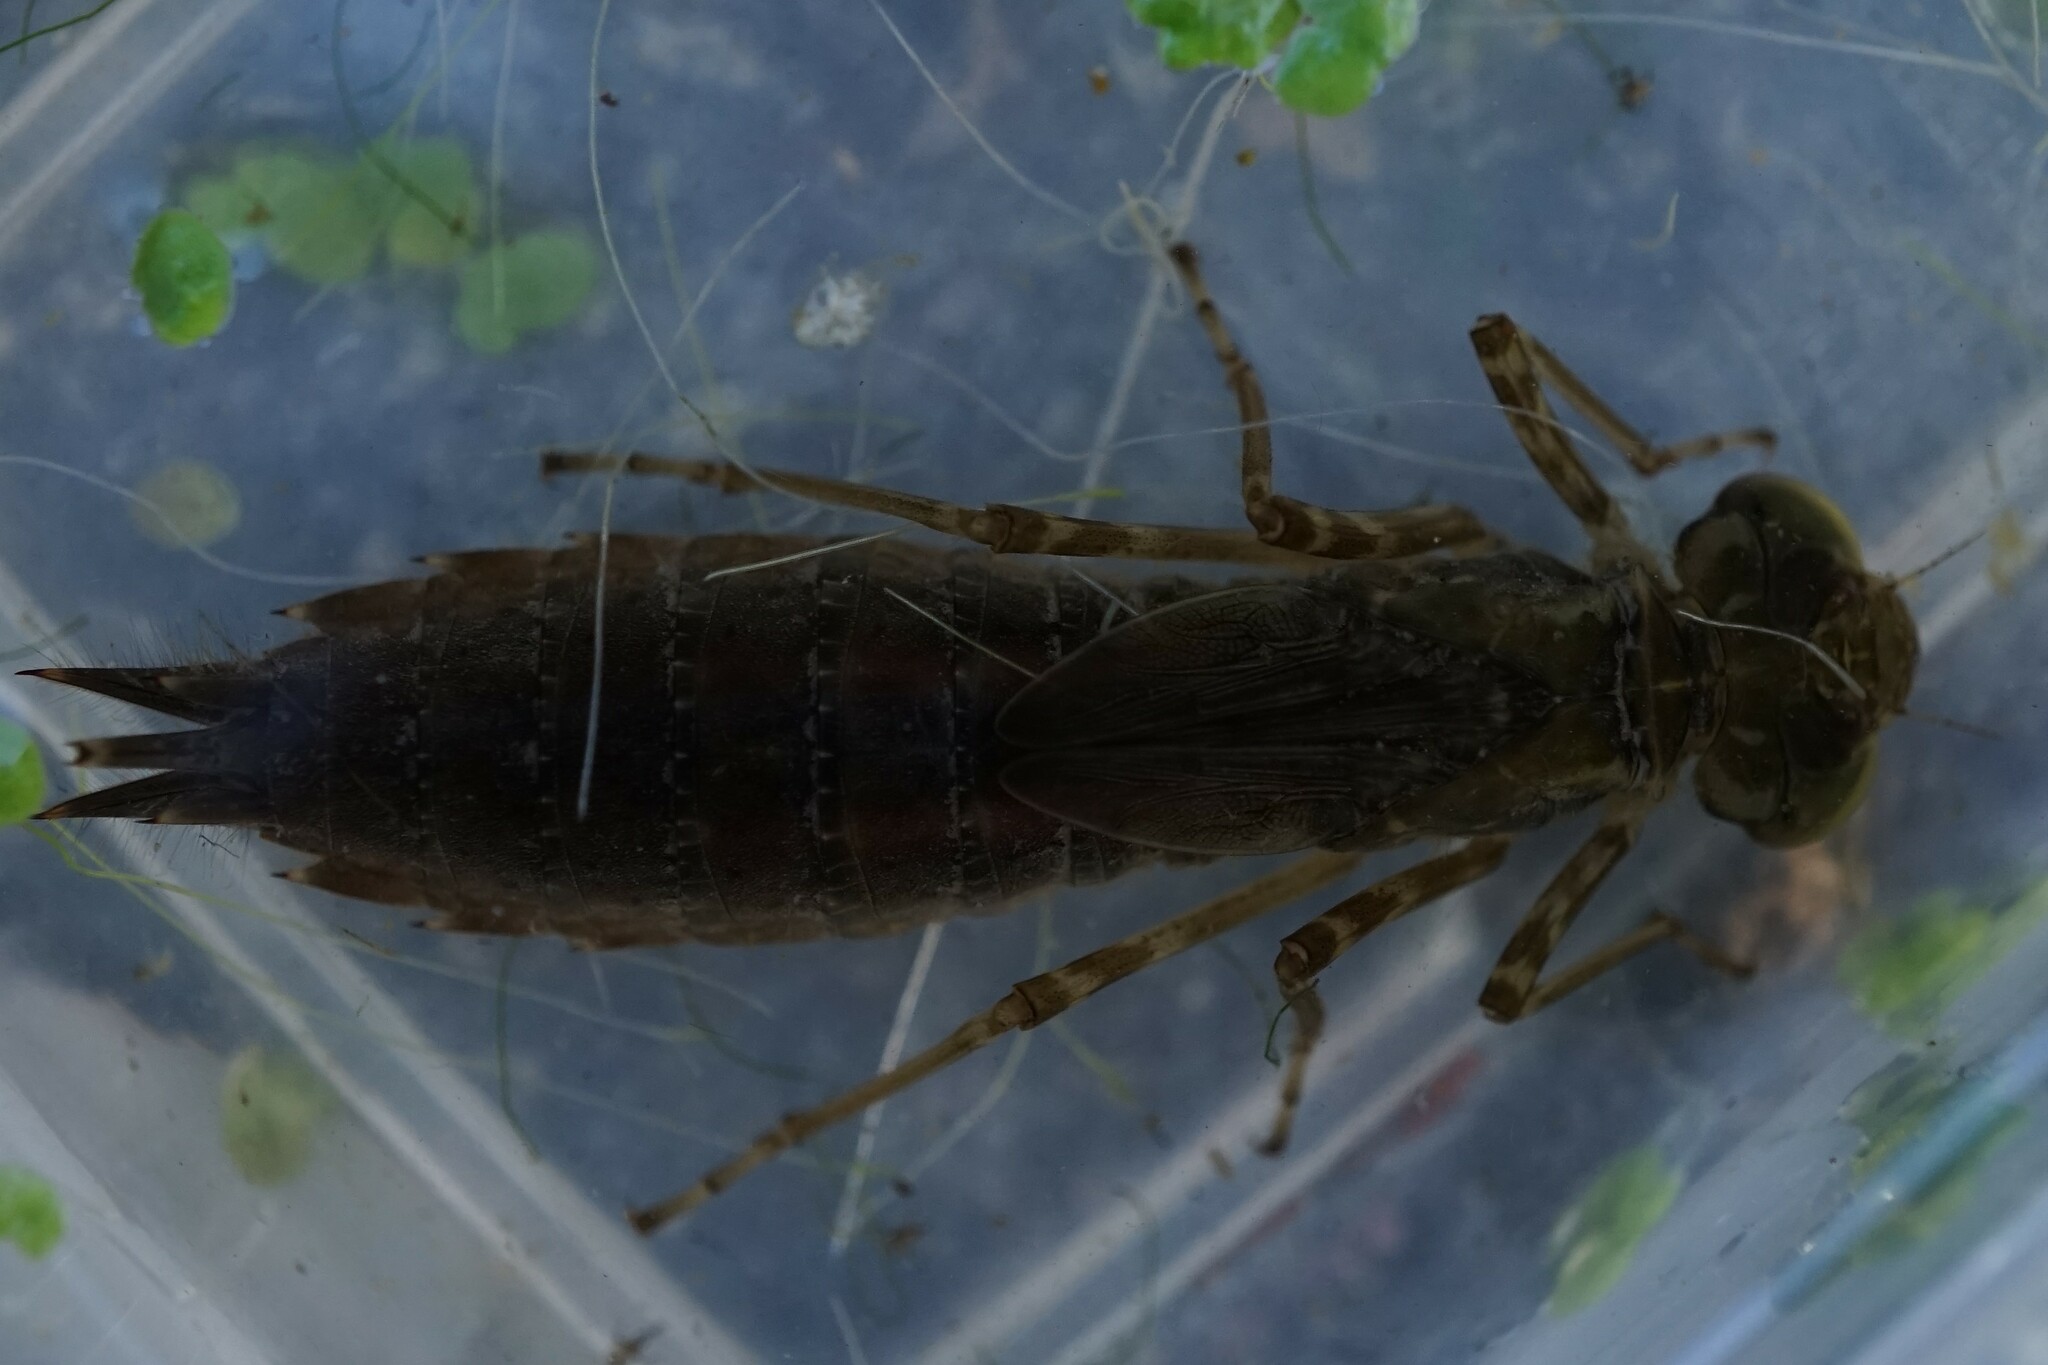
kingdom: Animalia
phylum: Arthropoda
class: Insecta
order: Odonata
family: Aeshnidae
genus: Anax
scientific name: Anax nigrofasciatus
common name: Blue-spotted emperor
